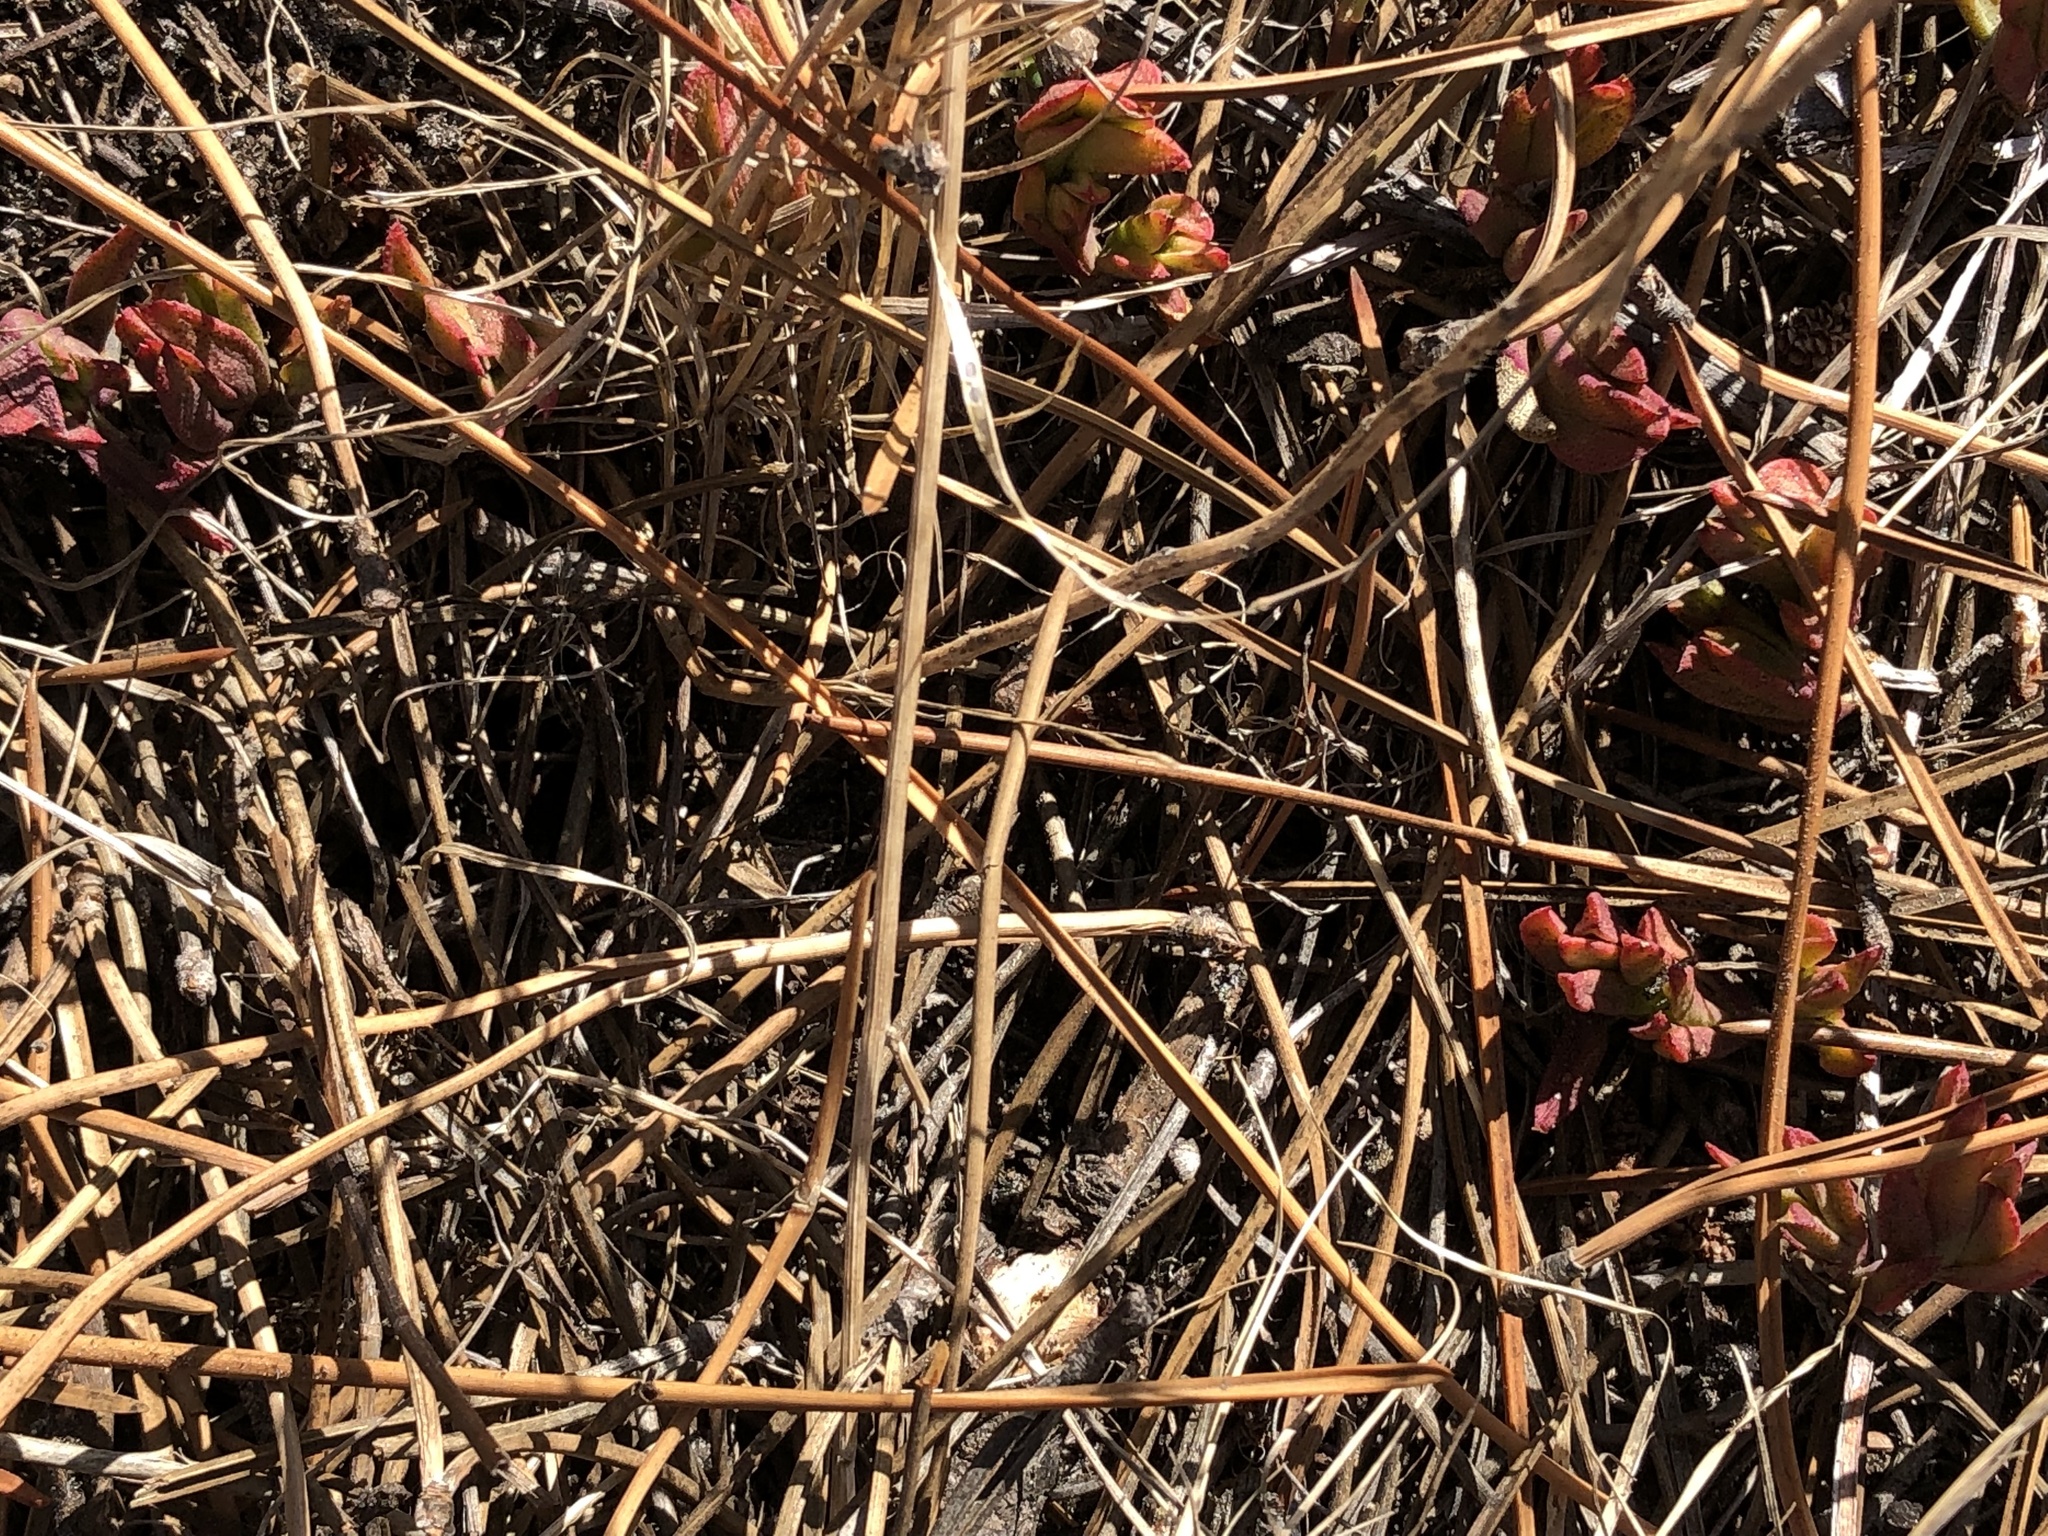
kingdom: Plantae
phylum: Tracheophyta
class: Magnoliopsida
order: Caryophyllales
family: Aizoaceae
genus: Lampranthus
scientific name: Lampranthus reptans
